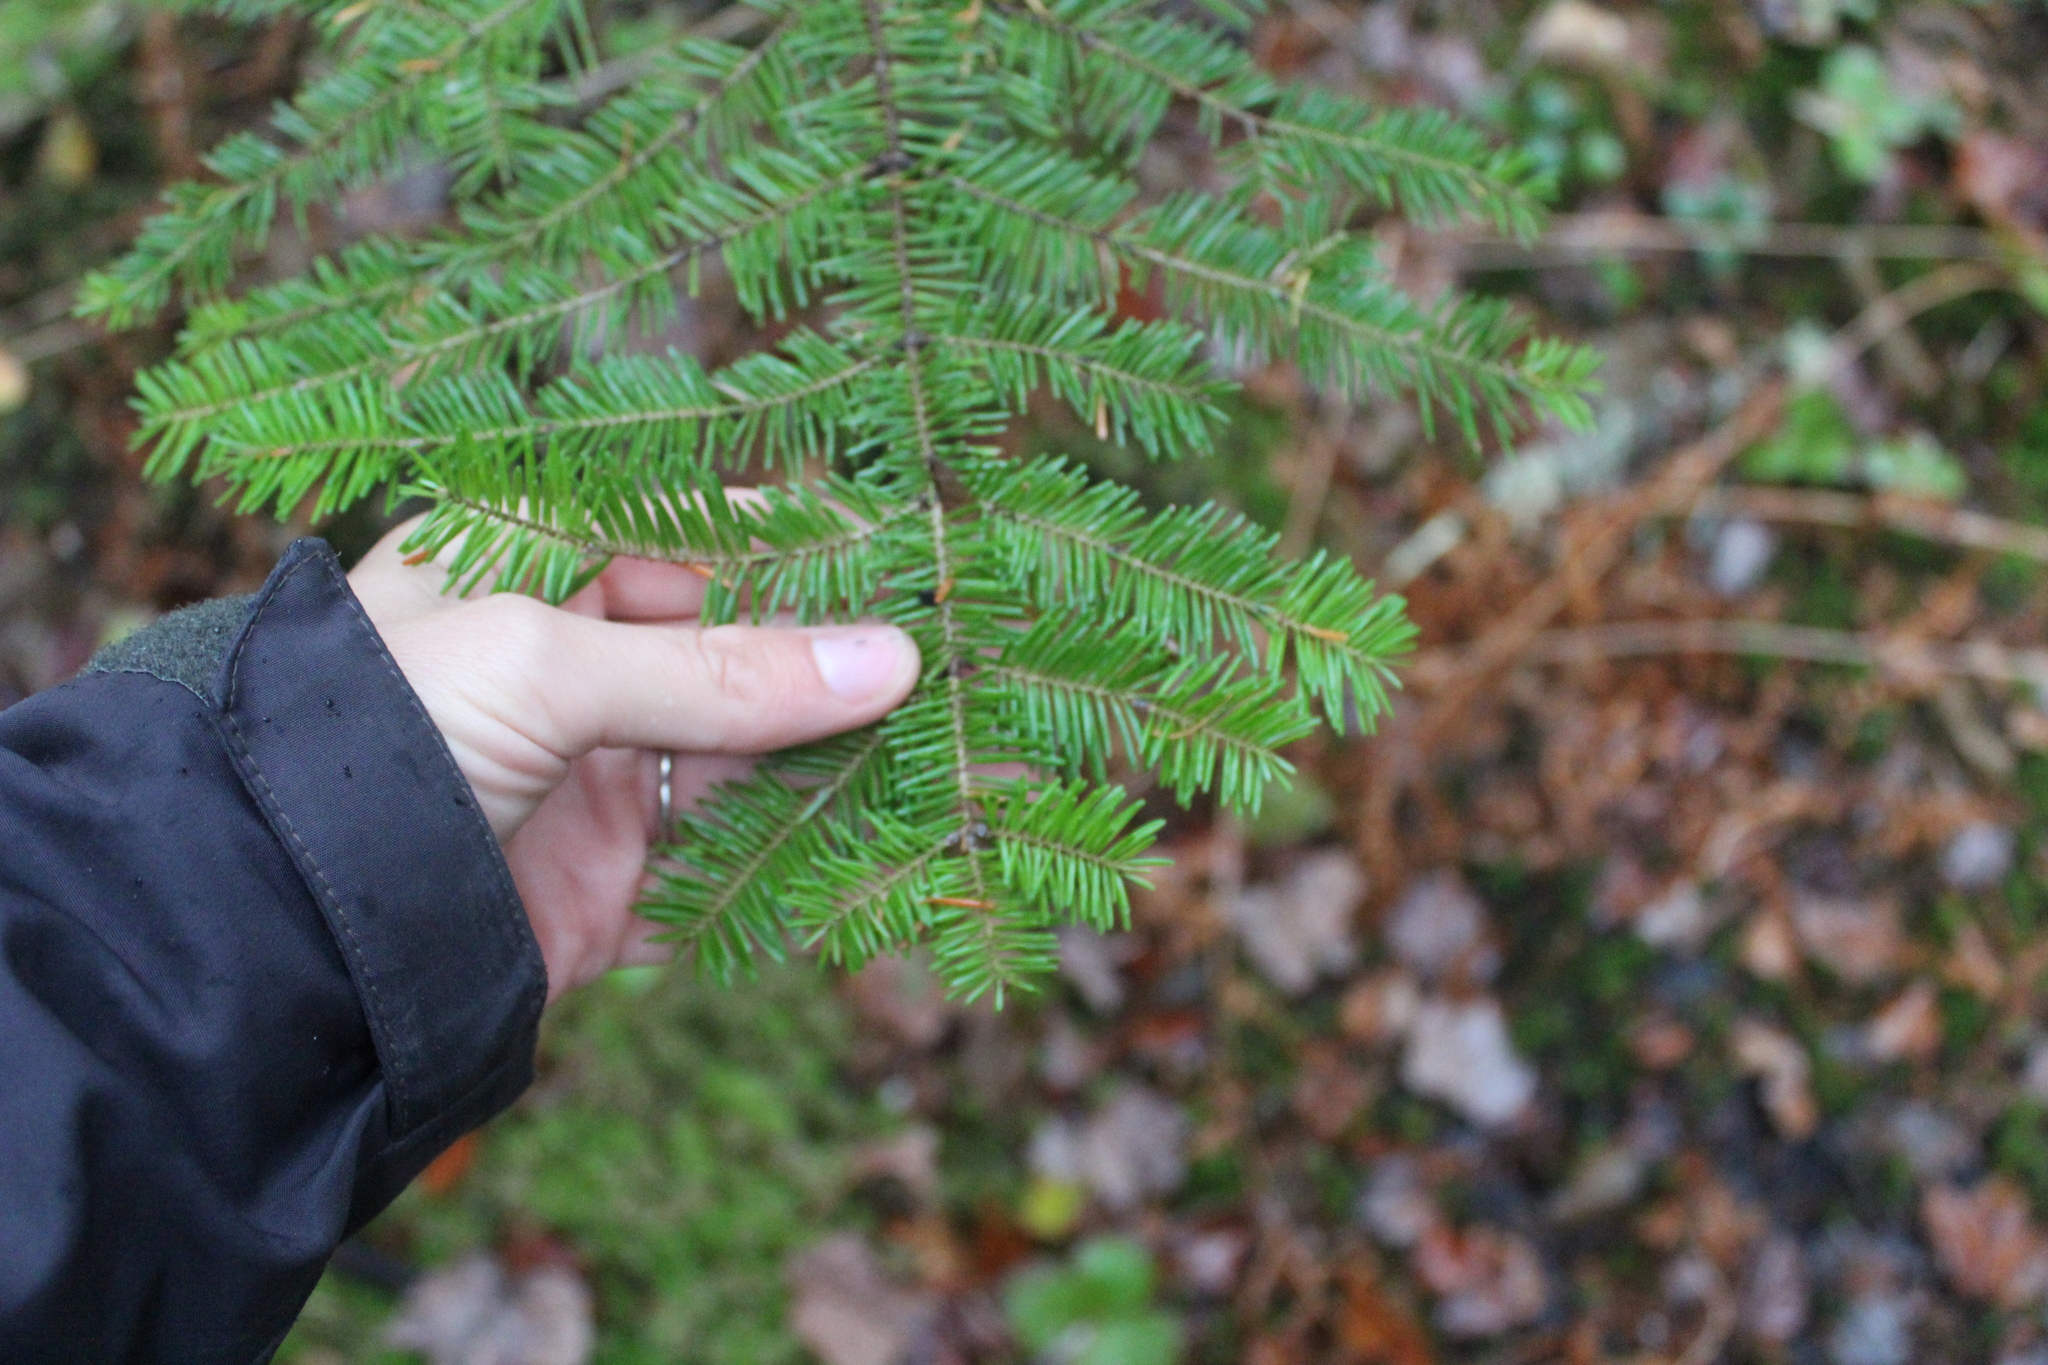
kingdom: Plantae
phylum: Tracheophyta
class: Pinopsida
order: Pinales
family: Pinaceae
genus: Abies
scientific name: Abies balsamea
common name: Balsam fir
